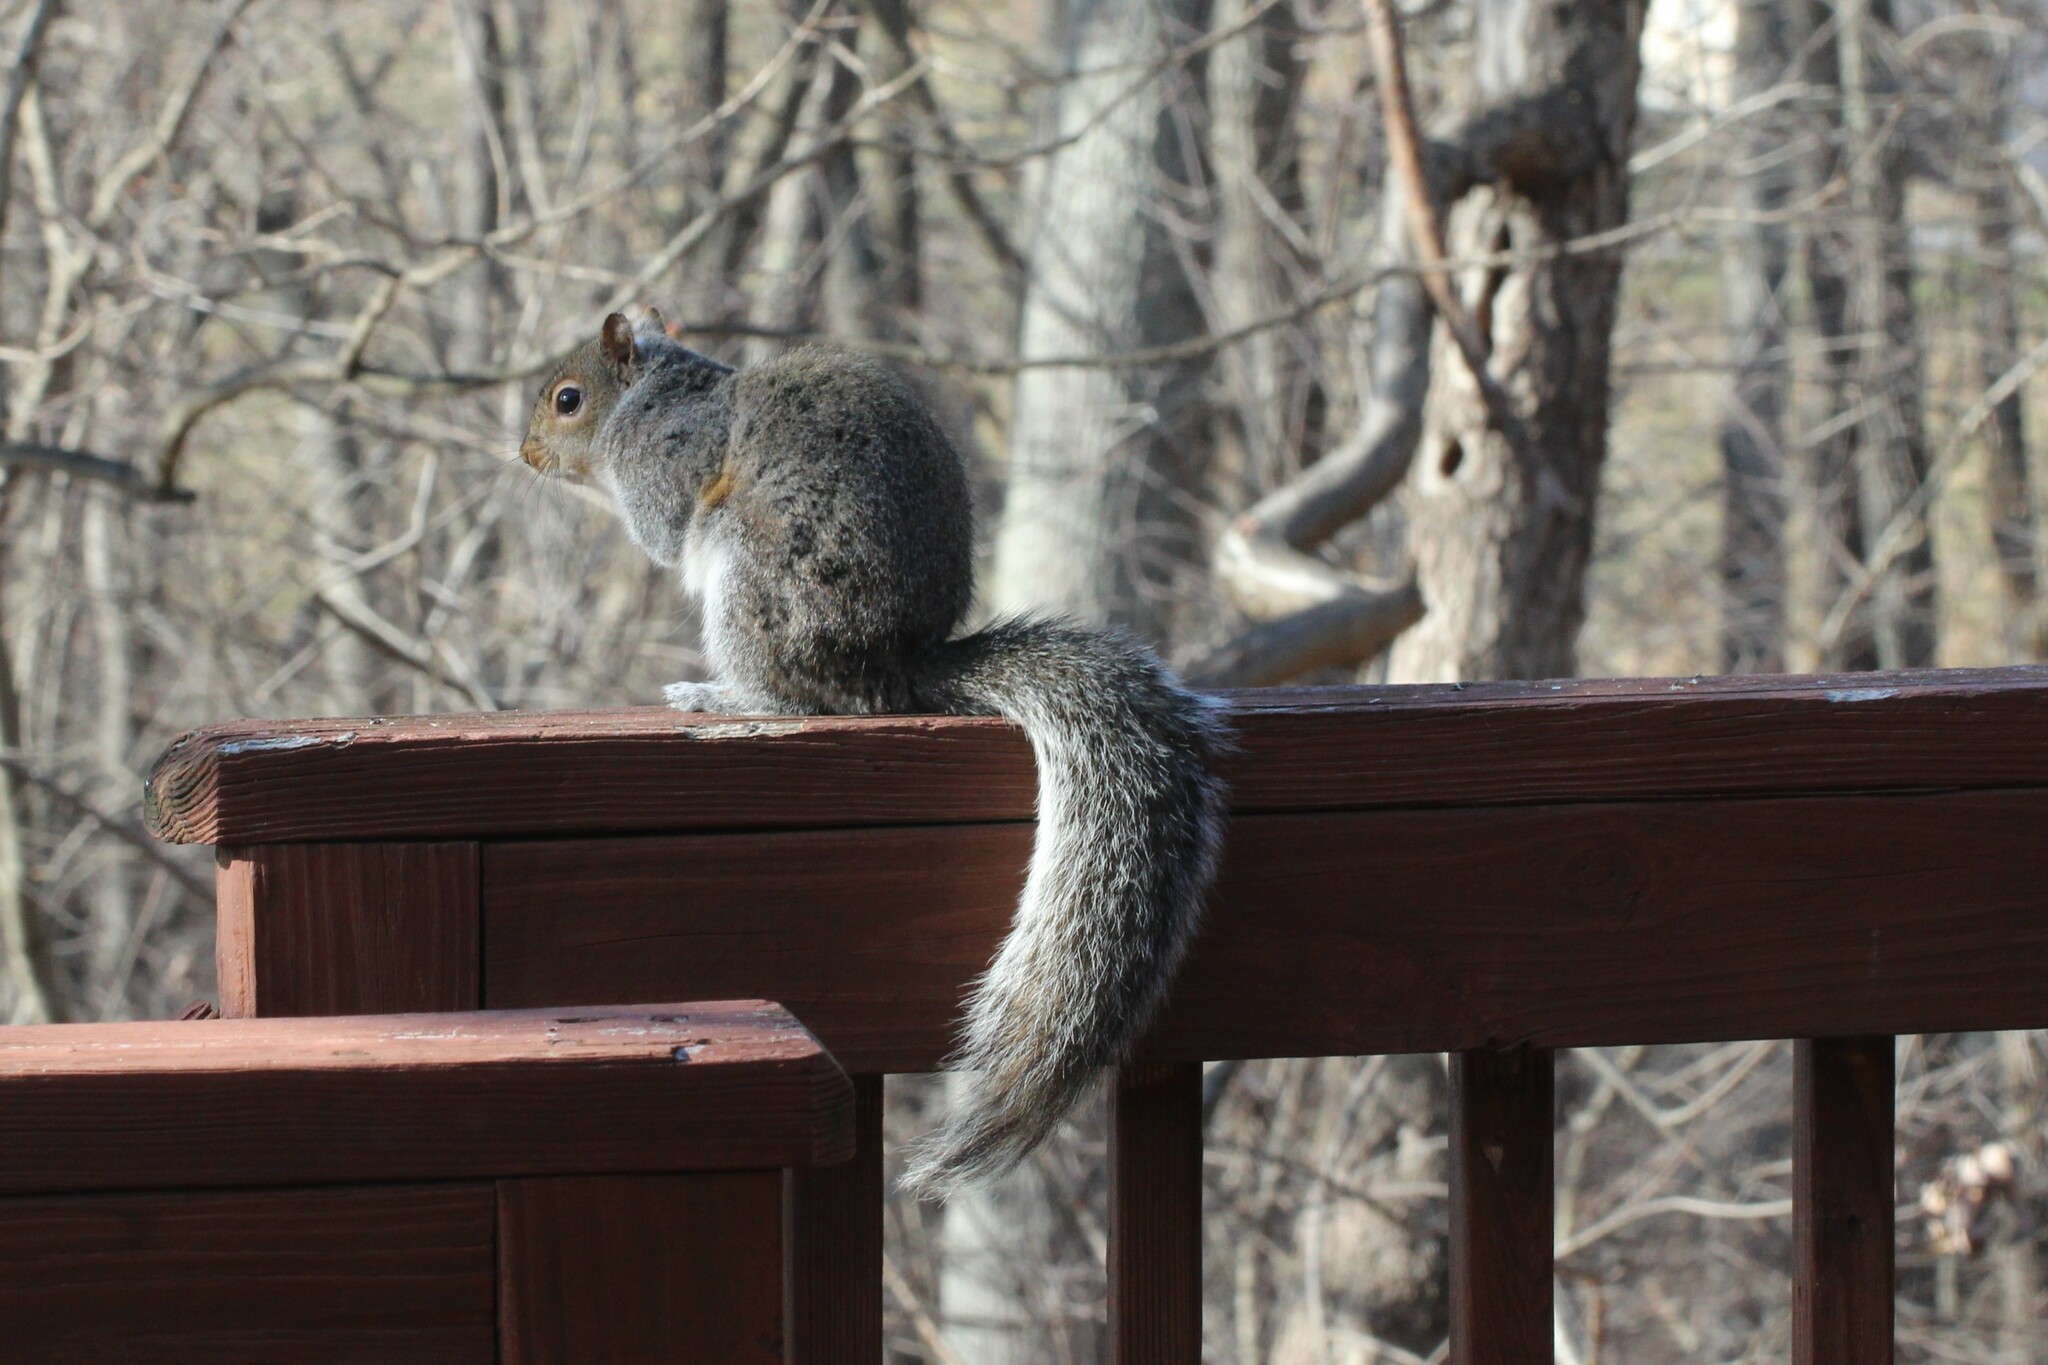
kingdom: Animalia
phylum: Chordata
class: Mammalia
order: Rodentia
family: Sciuridae
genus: Sciurus
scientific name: Sciurus carolinensis
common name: Eastern gray squirrel
